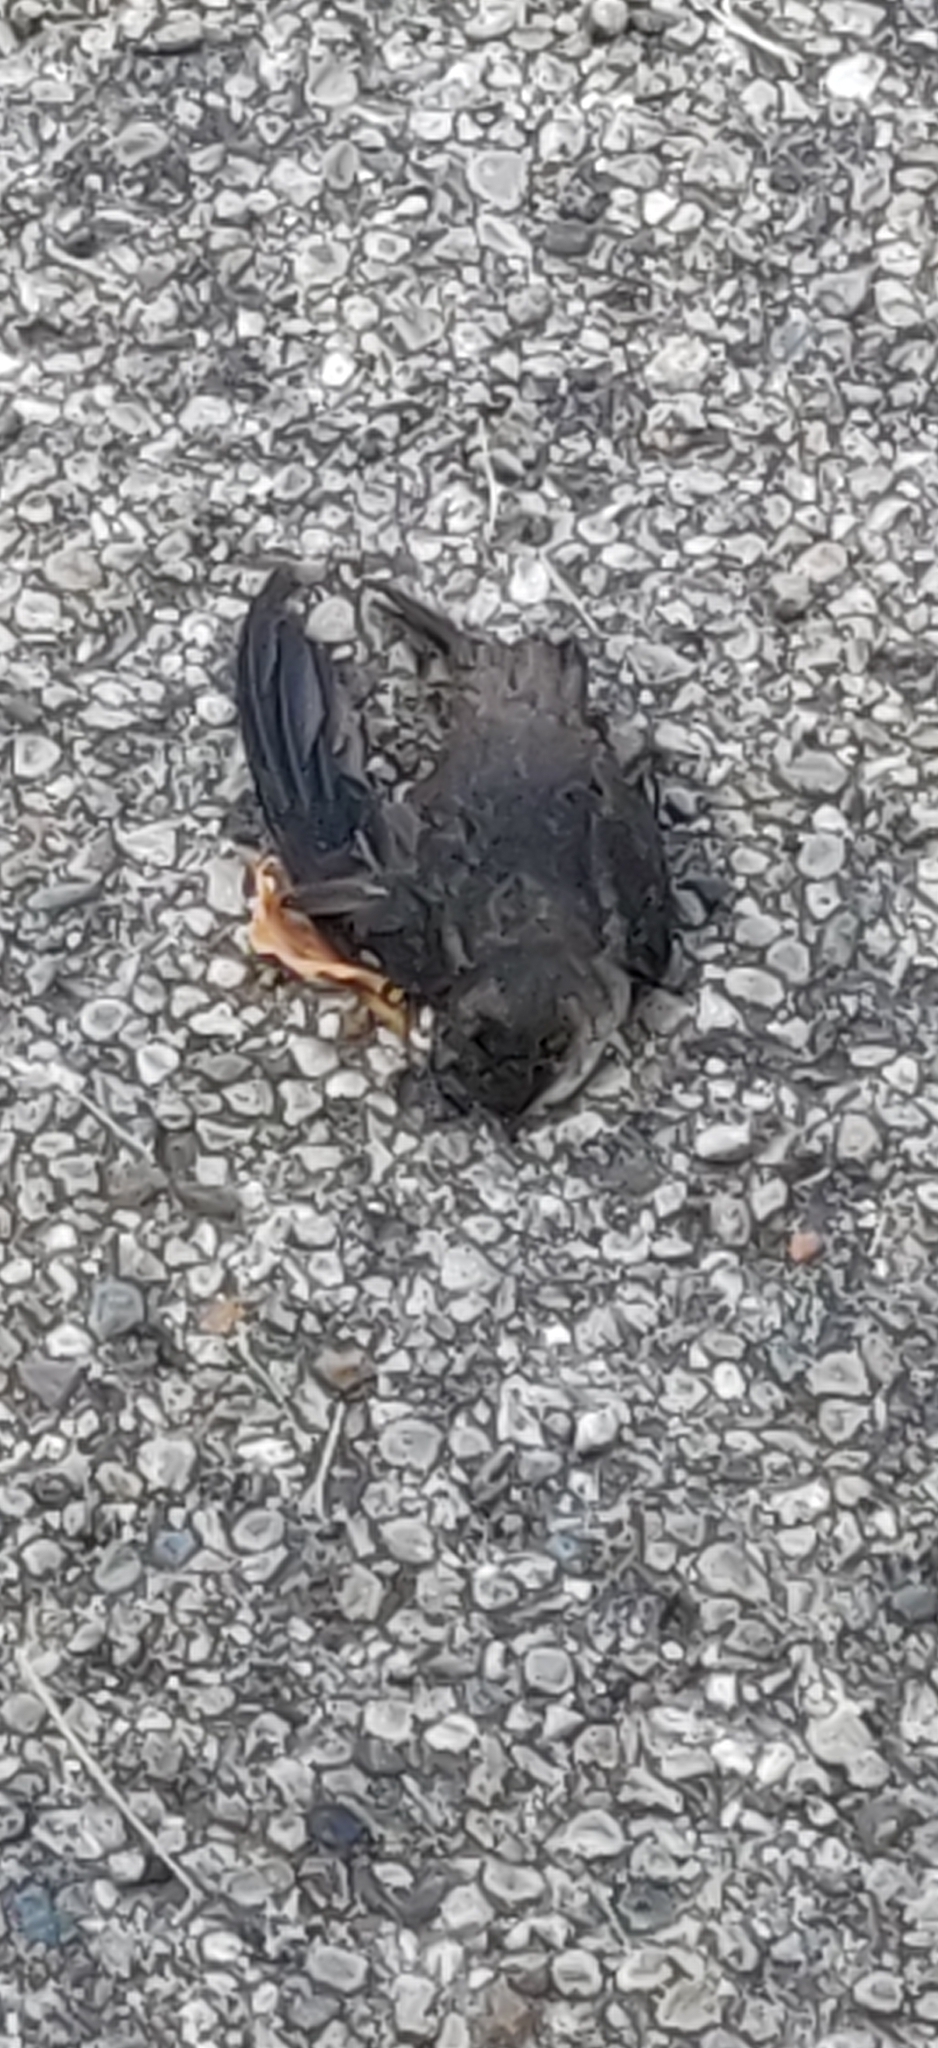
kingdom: Animalia
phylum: Chordata
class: Aves
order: Apodiformes
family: Apodidae
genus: Chaetura
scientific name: Chaetura pelagica
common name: Chimney swift
